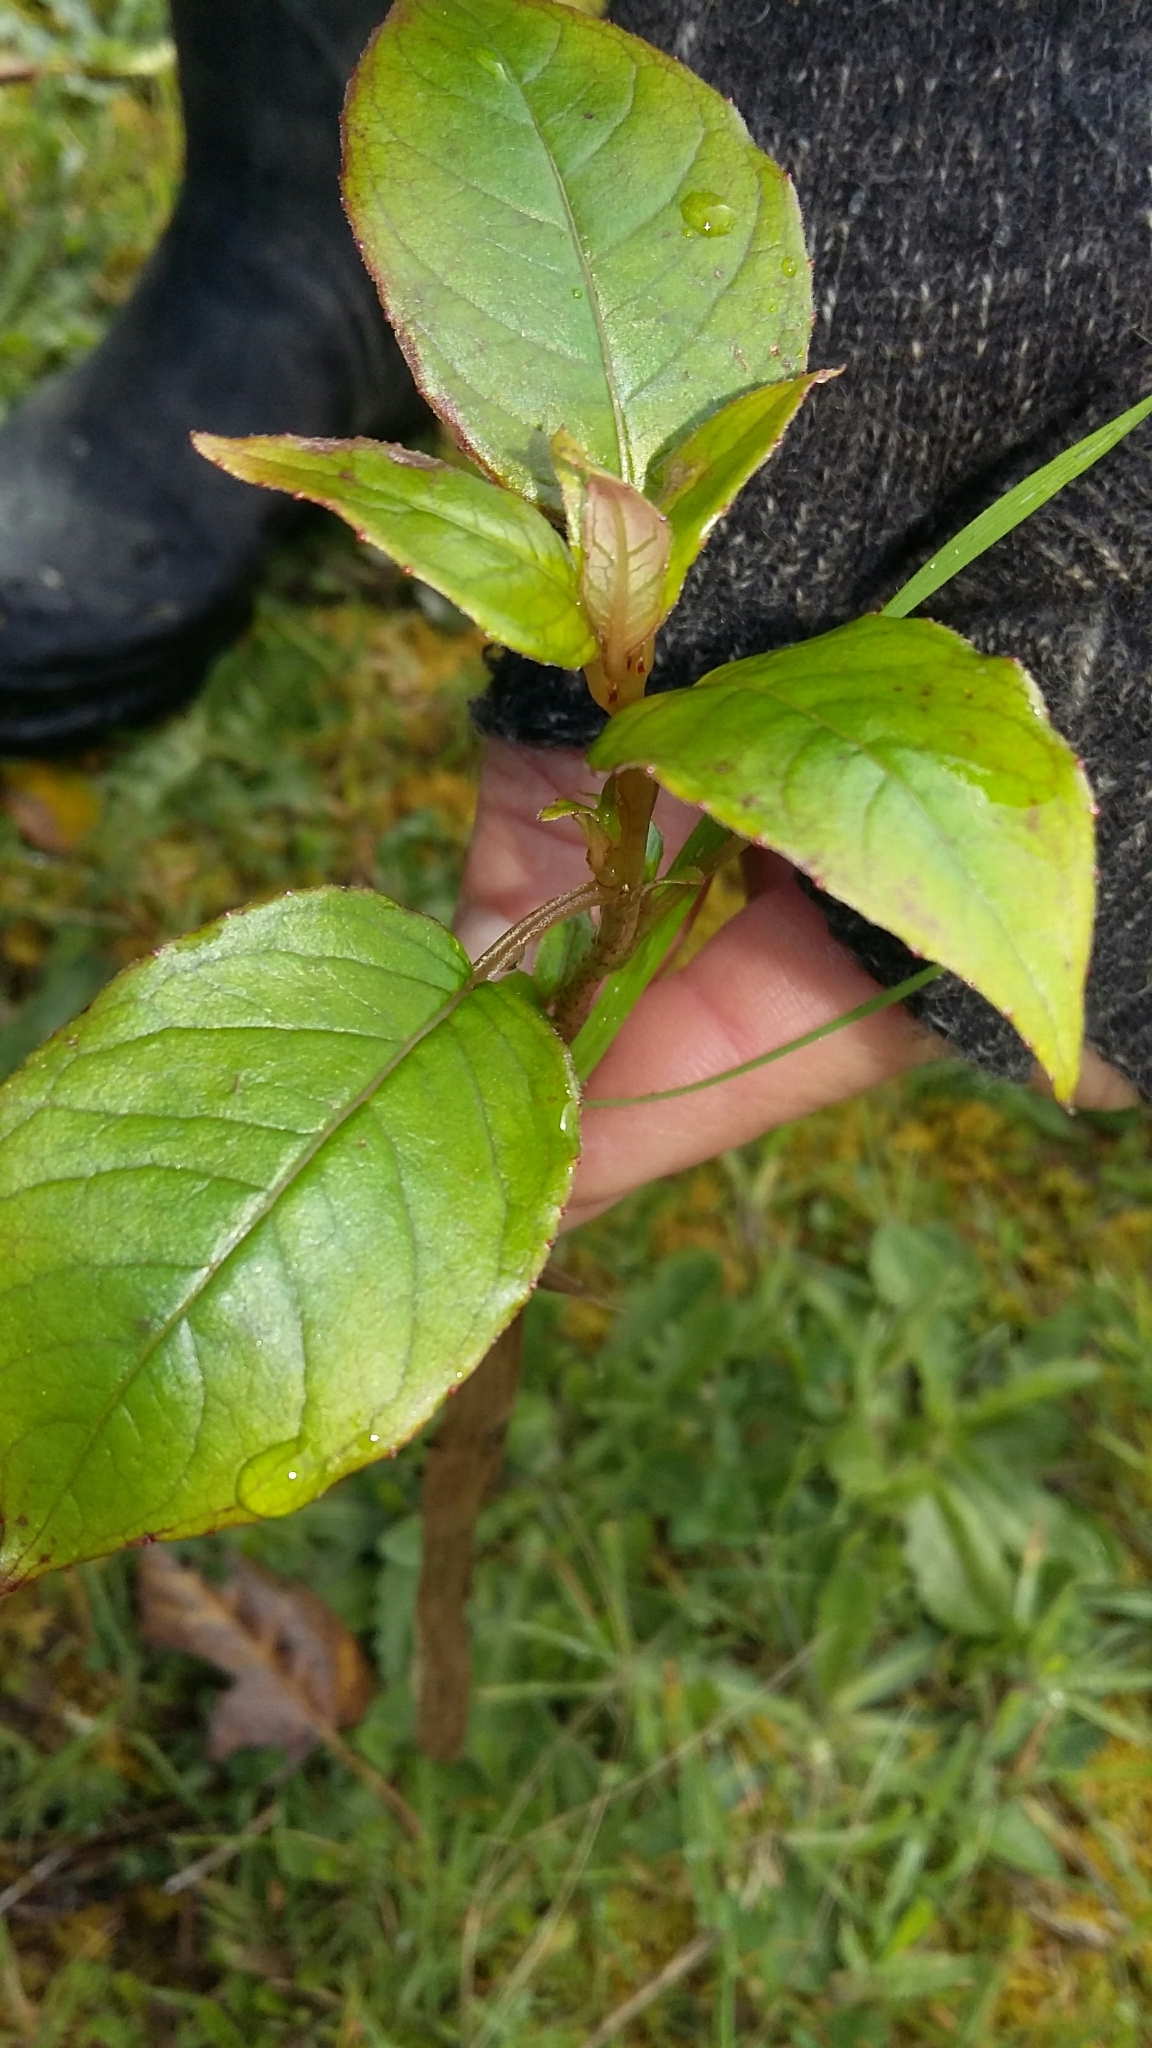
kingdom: Plantae
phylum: Tracheophyta
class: Magnoliopsida
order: Myrtales
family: Onagraceae
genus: Fuchsia
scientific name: Fuchsia excorticata
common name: Tree fuchsia
